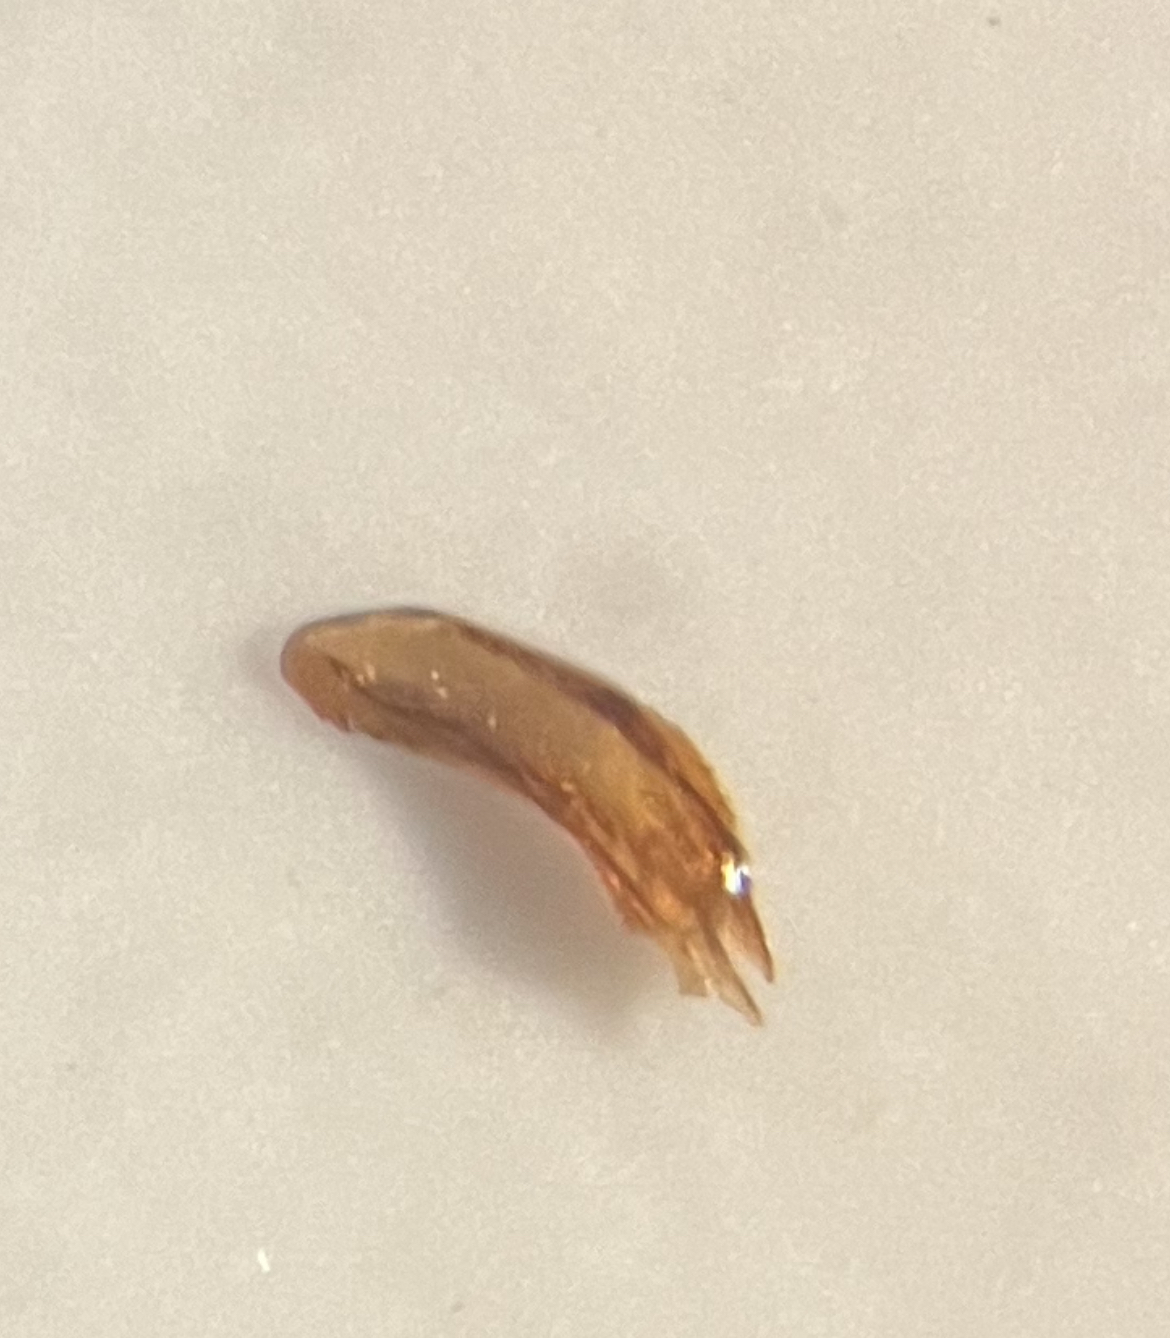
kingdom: Animalia
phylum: Arthropoda
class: Insecta
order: Hemiptera
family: Delphacidae
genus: Ribautodelphax
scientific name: Ribautodelphax albostriata
